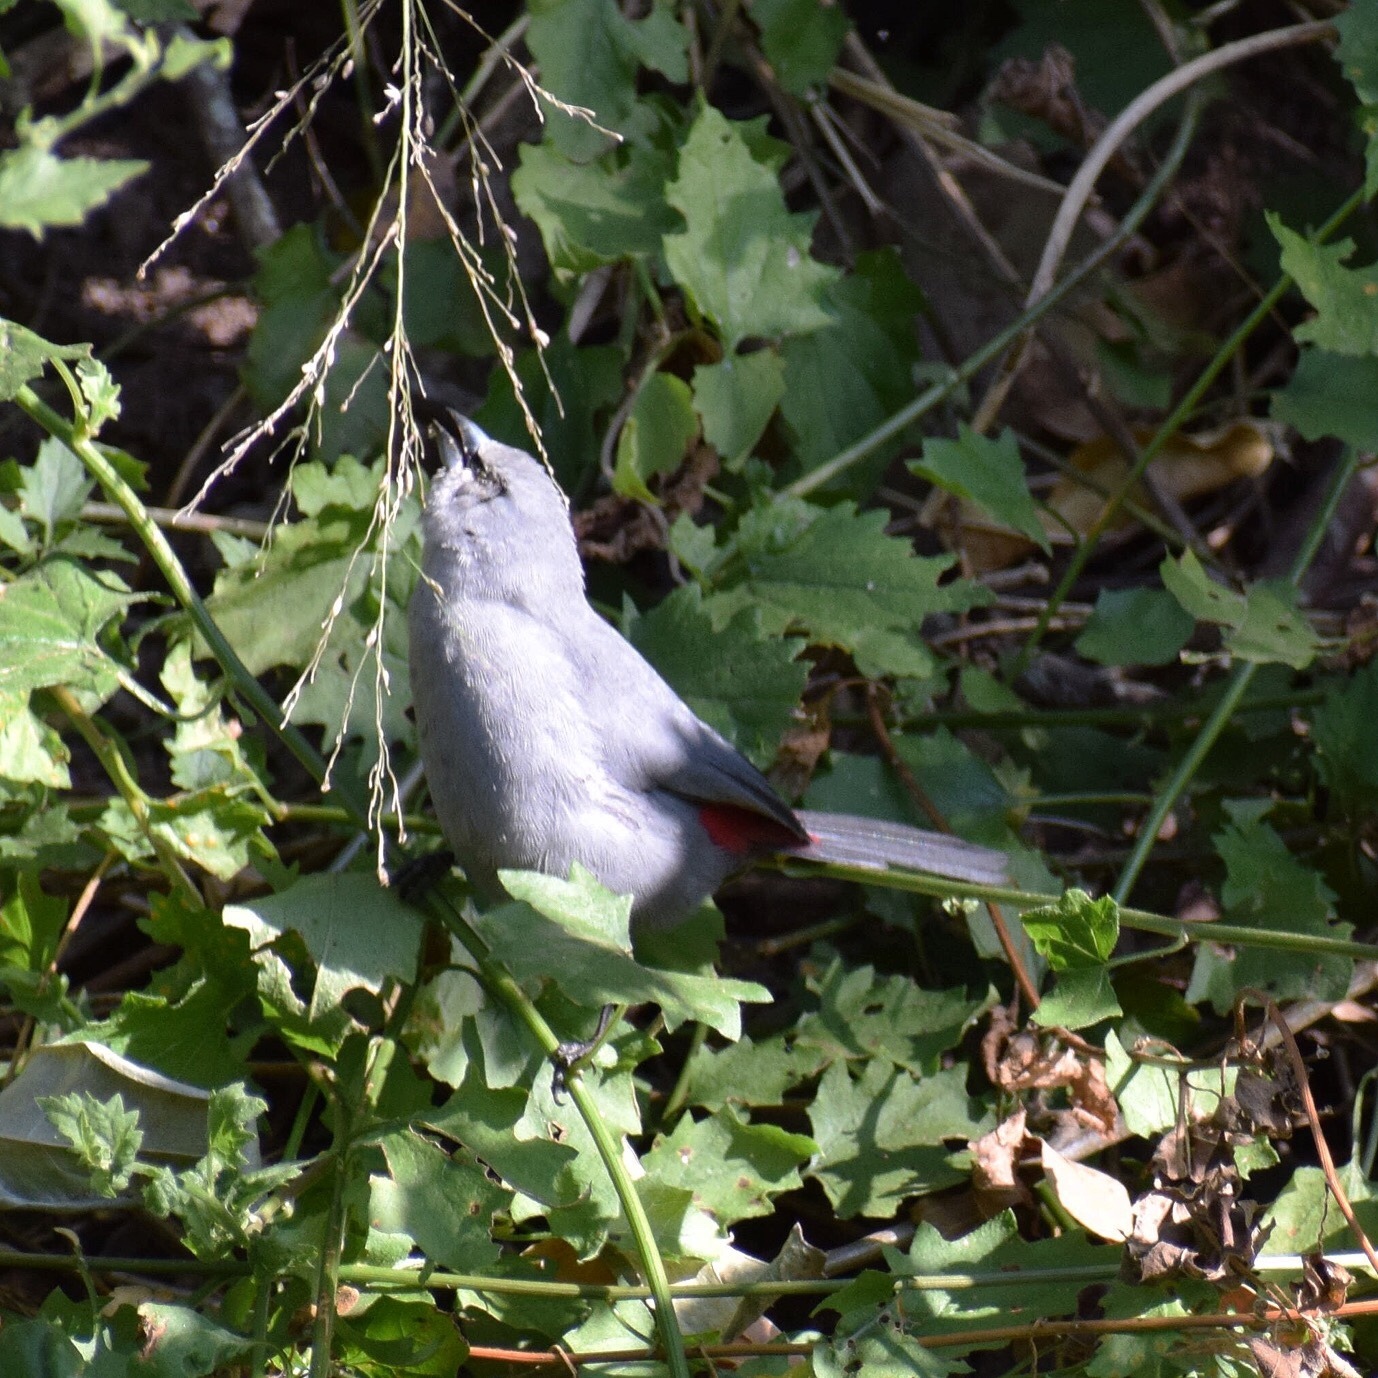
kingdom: Animalia
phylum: Chordata
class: Aves
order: Passeriformes
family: Estrildidae
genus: Estrilda
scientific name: Estrilda perreini
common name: Grey waxbill
